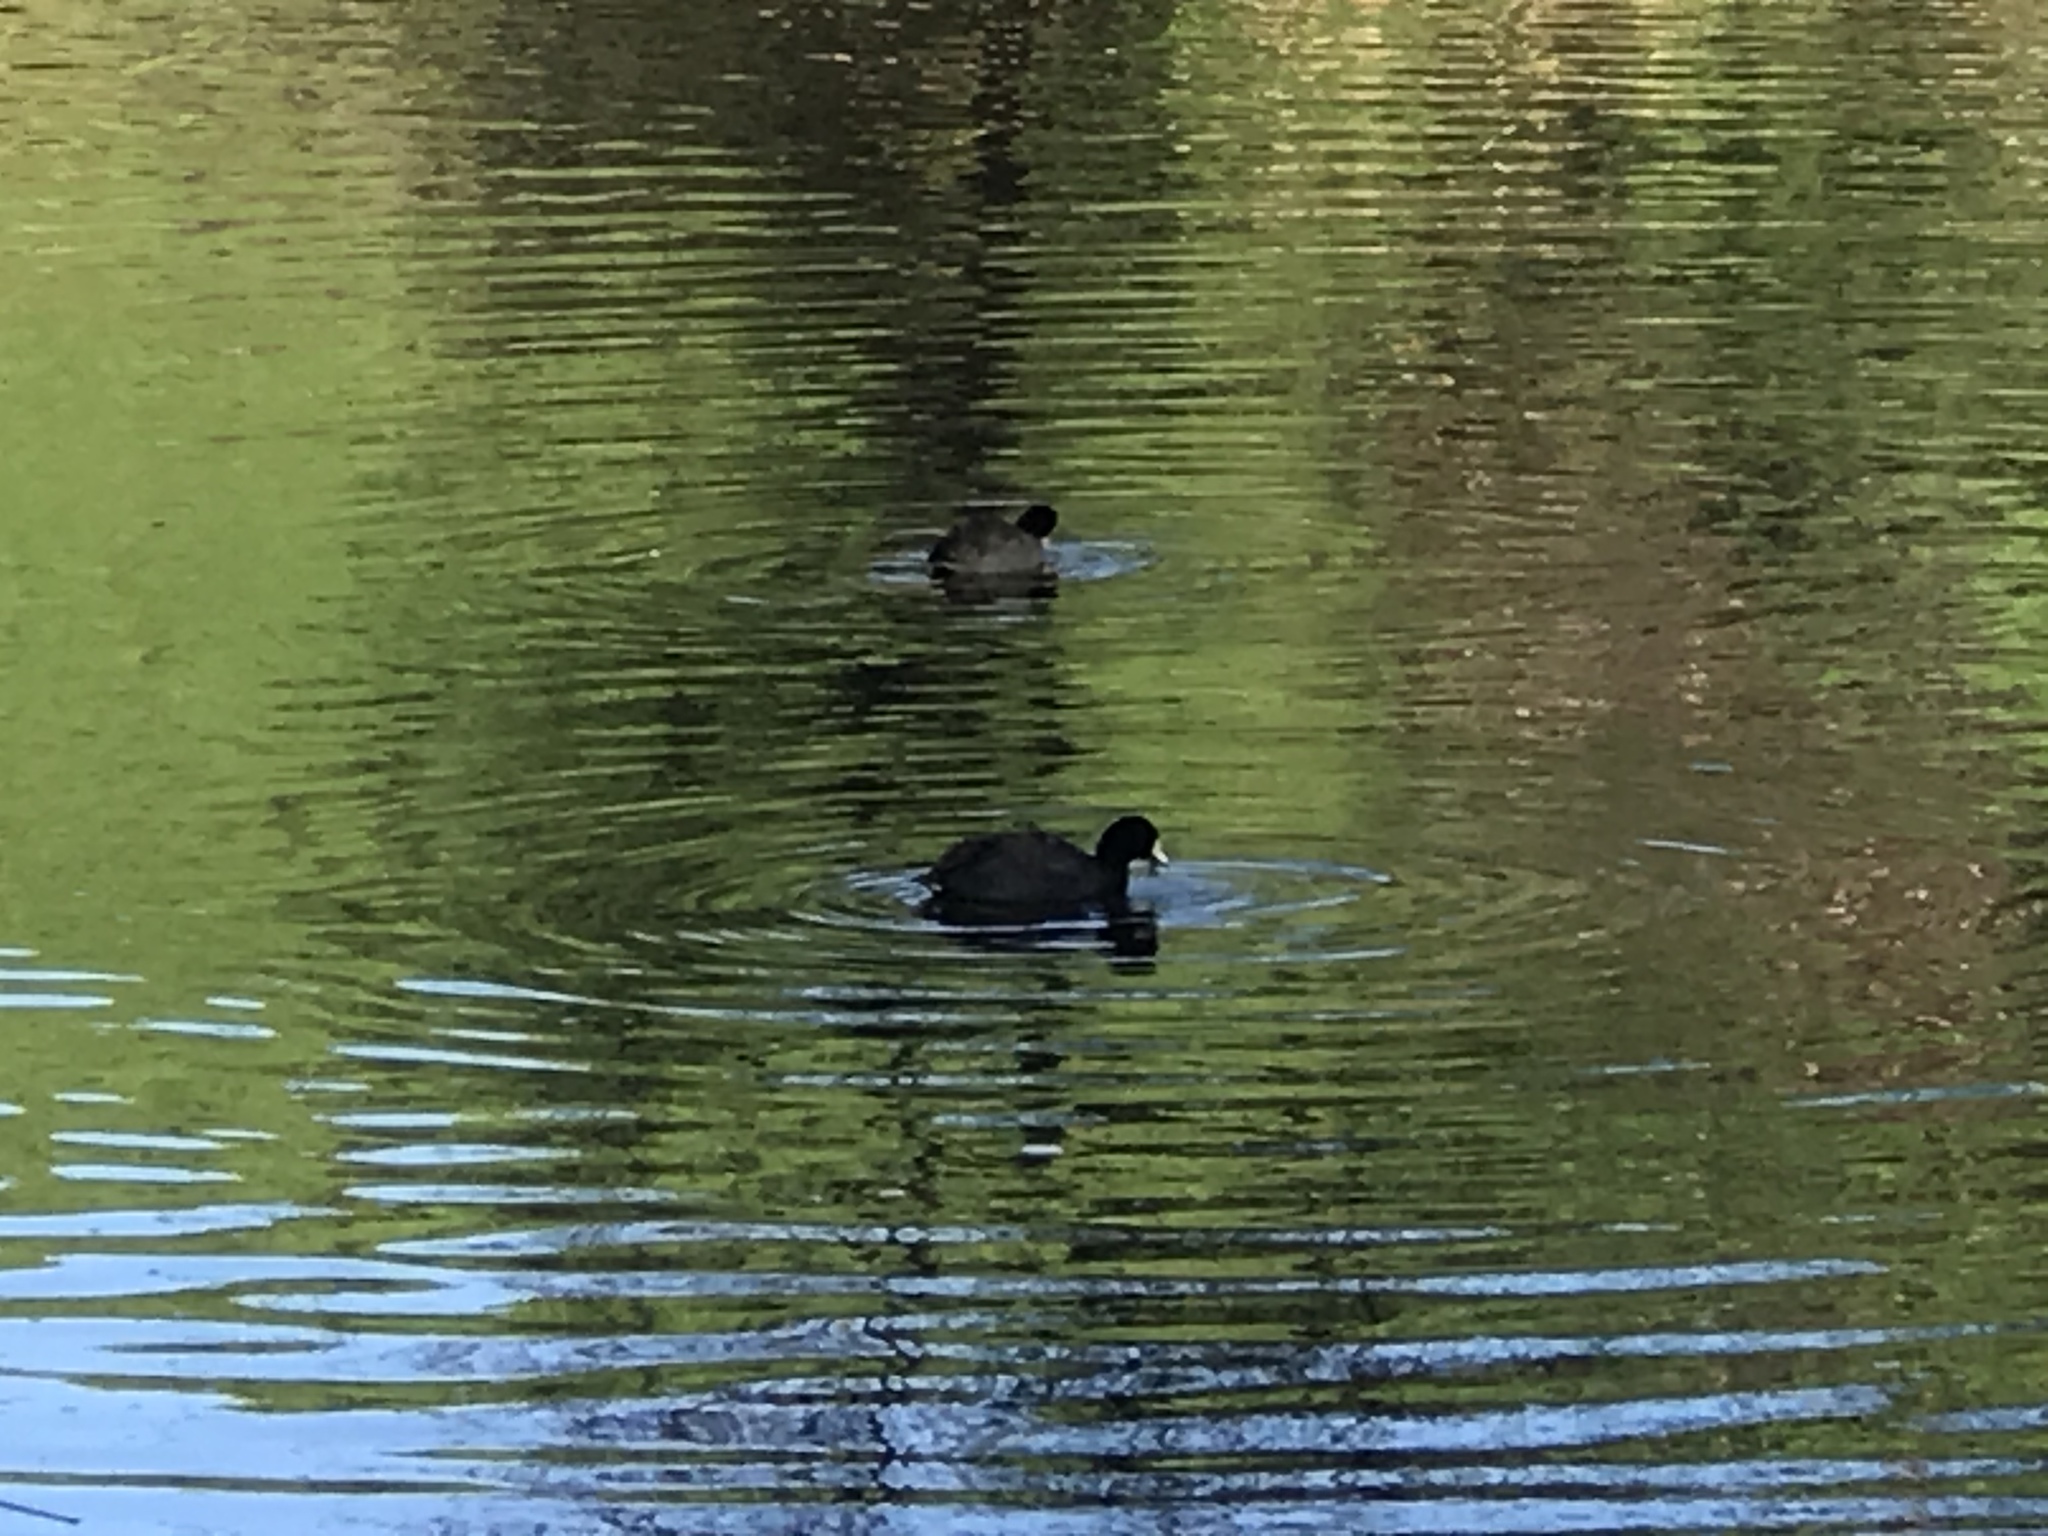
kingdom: Animalia
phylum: Chordata
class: Aves
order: Gruiformes
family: Rallidae
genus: Fulica
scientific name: Fulica americana
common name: American coot
